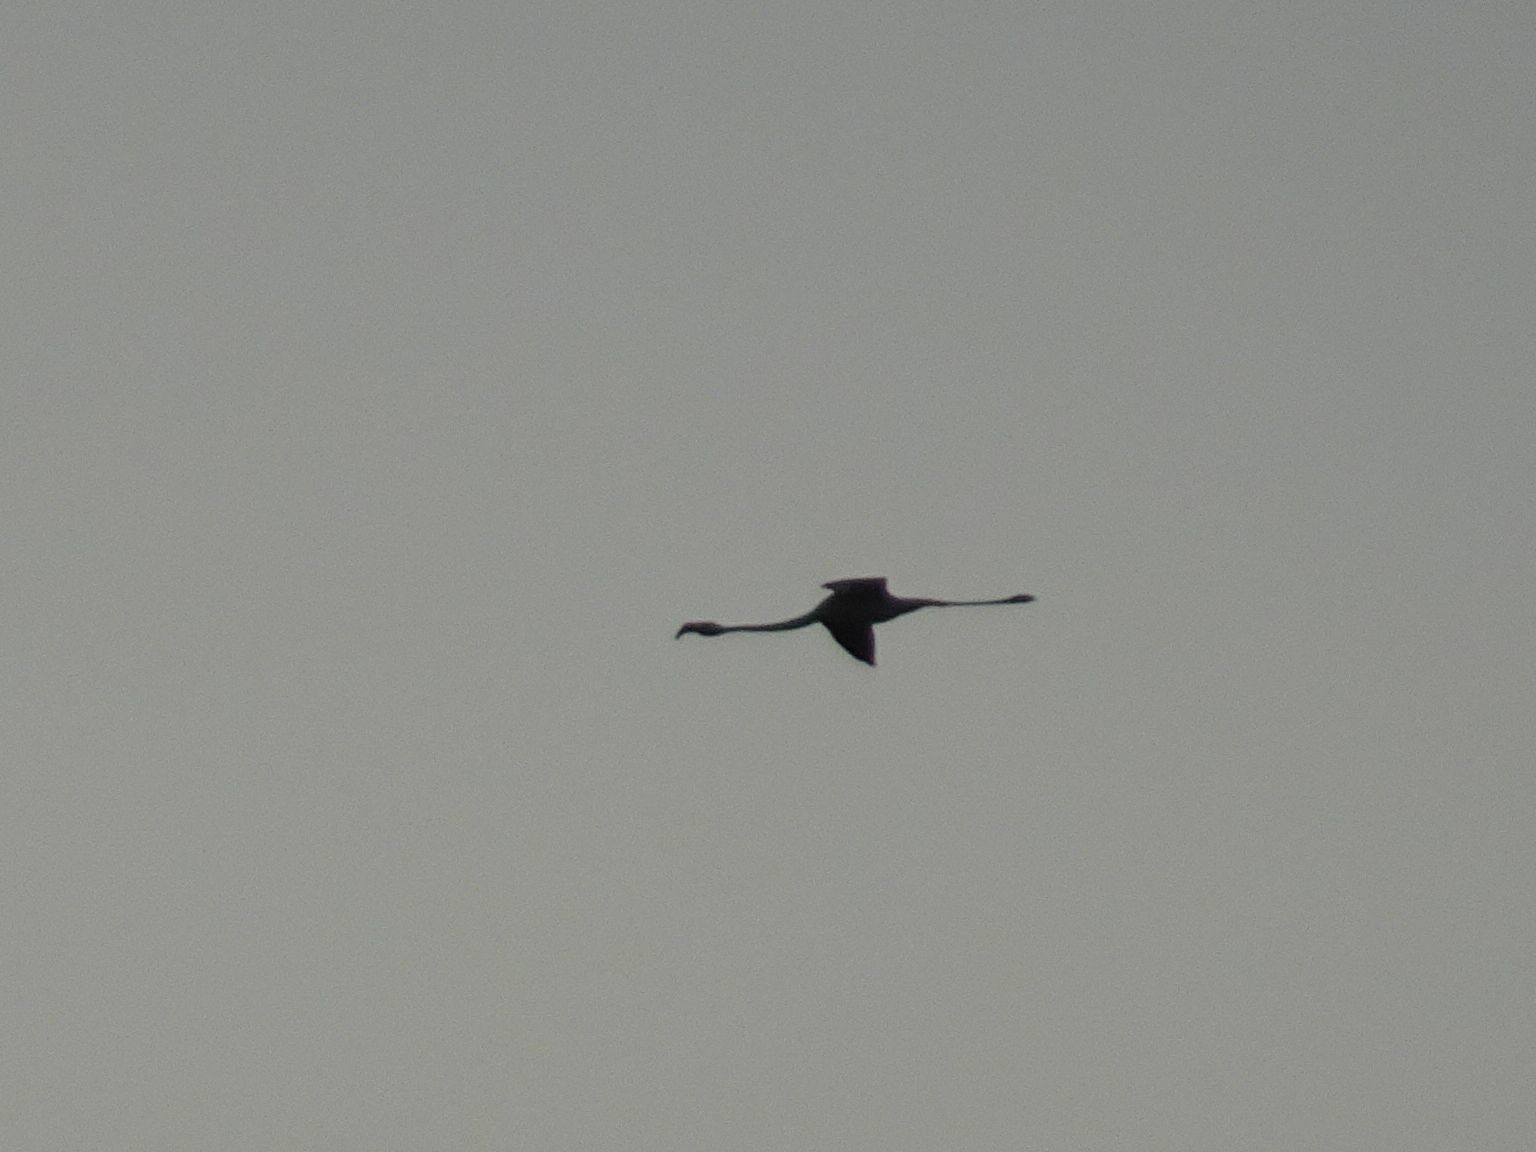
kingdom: Animalia
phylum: Chordata
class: Aves
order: Phoenicopteriformes
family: Phoenicopteridae
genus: Phoenicopterus
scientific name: Phoenicopterus roseus
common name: Greater flamingo
